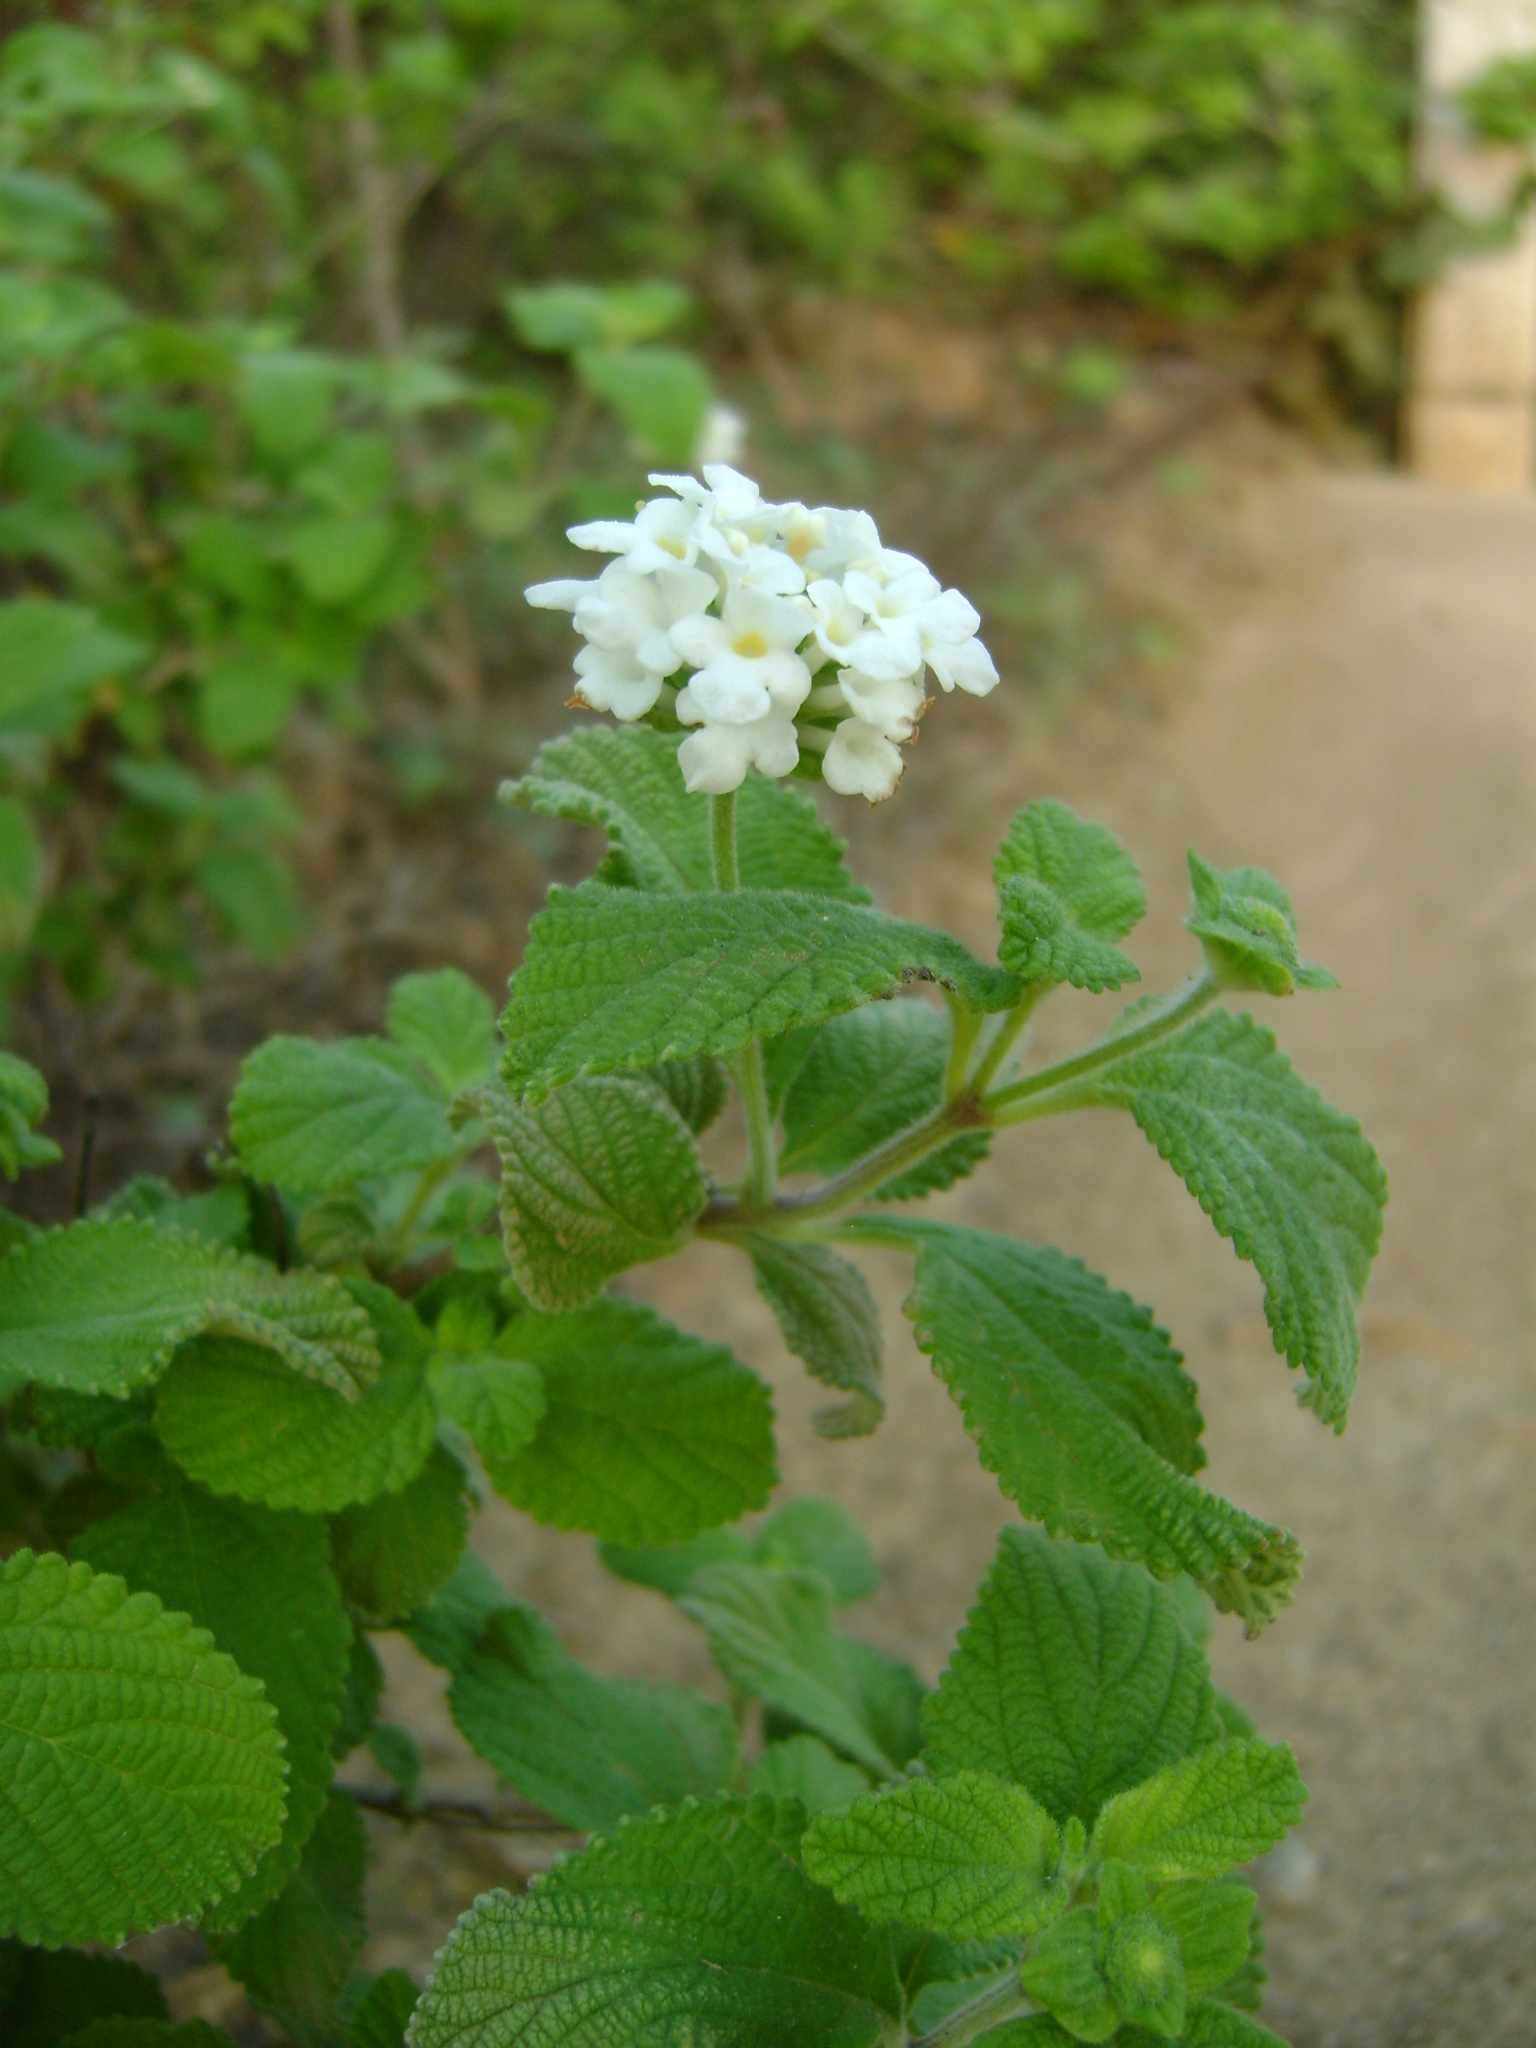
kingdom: Plantae
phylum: Tracheophyta
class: Magnoliopsida
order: Lamiales
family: Verbenaceae
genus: Lantana
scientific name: Lantana velutina
